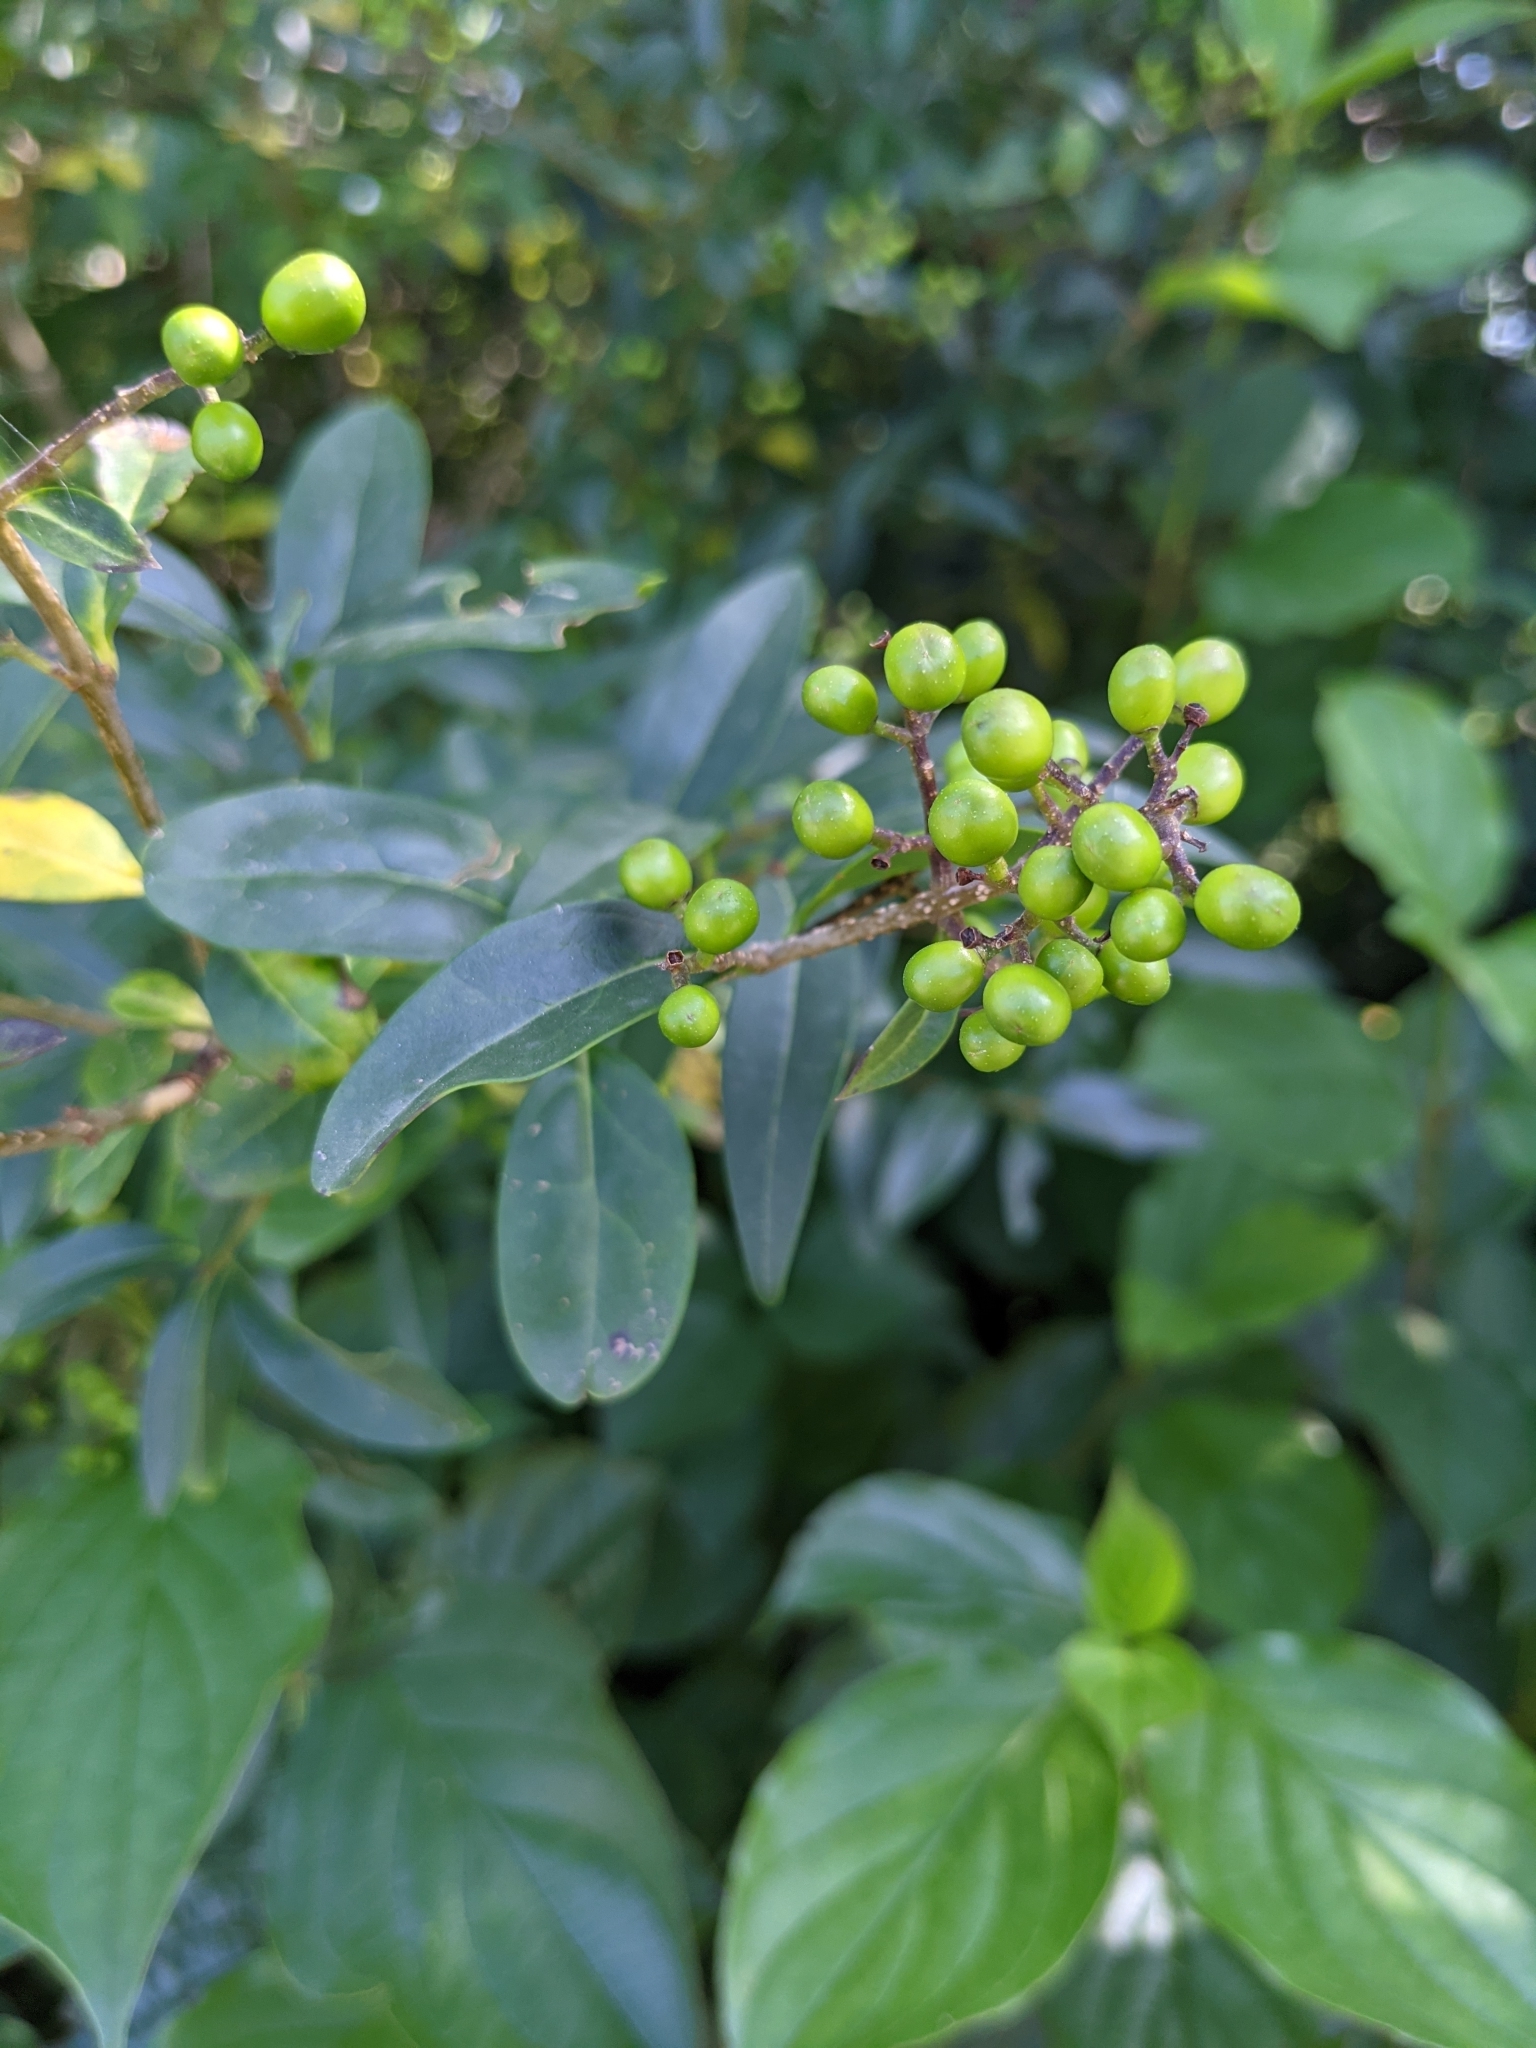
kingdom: Plantae
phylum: Tracheophyta
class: Magnoliopsida
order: Lamiales
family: Oleaceae
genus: Ligustrum
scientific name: Ligustrum vulgare
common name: Wild privet
